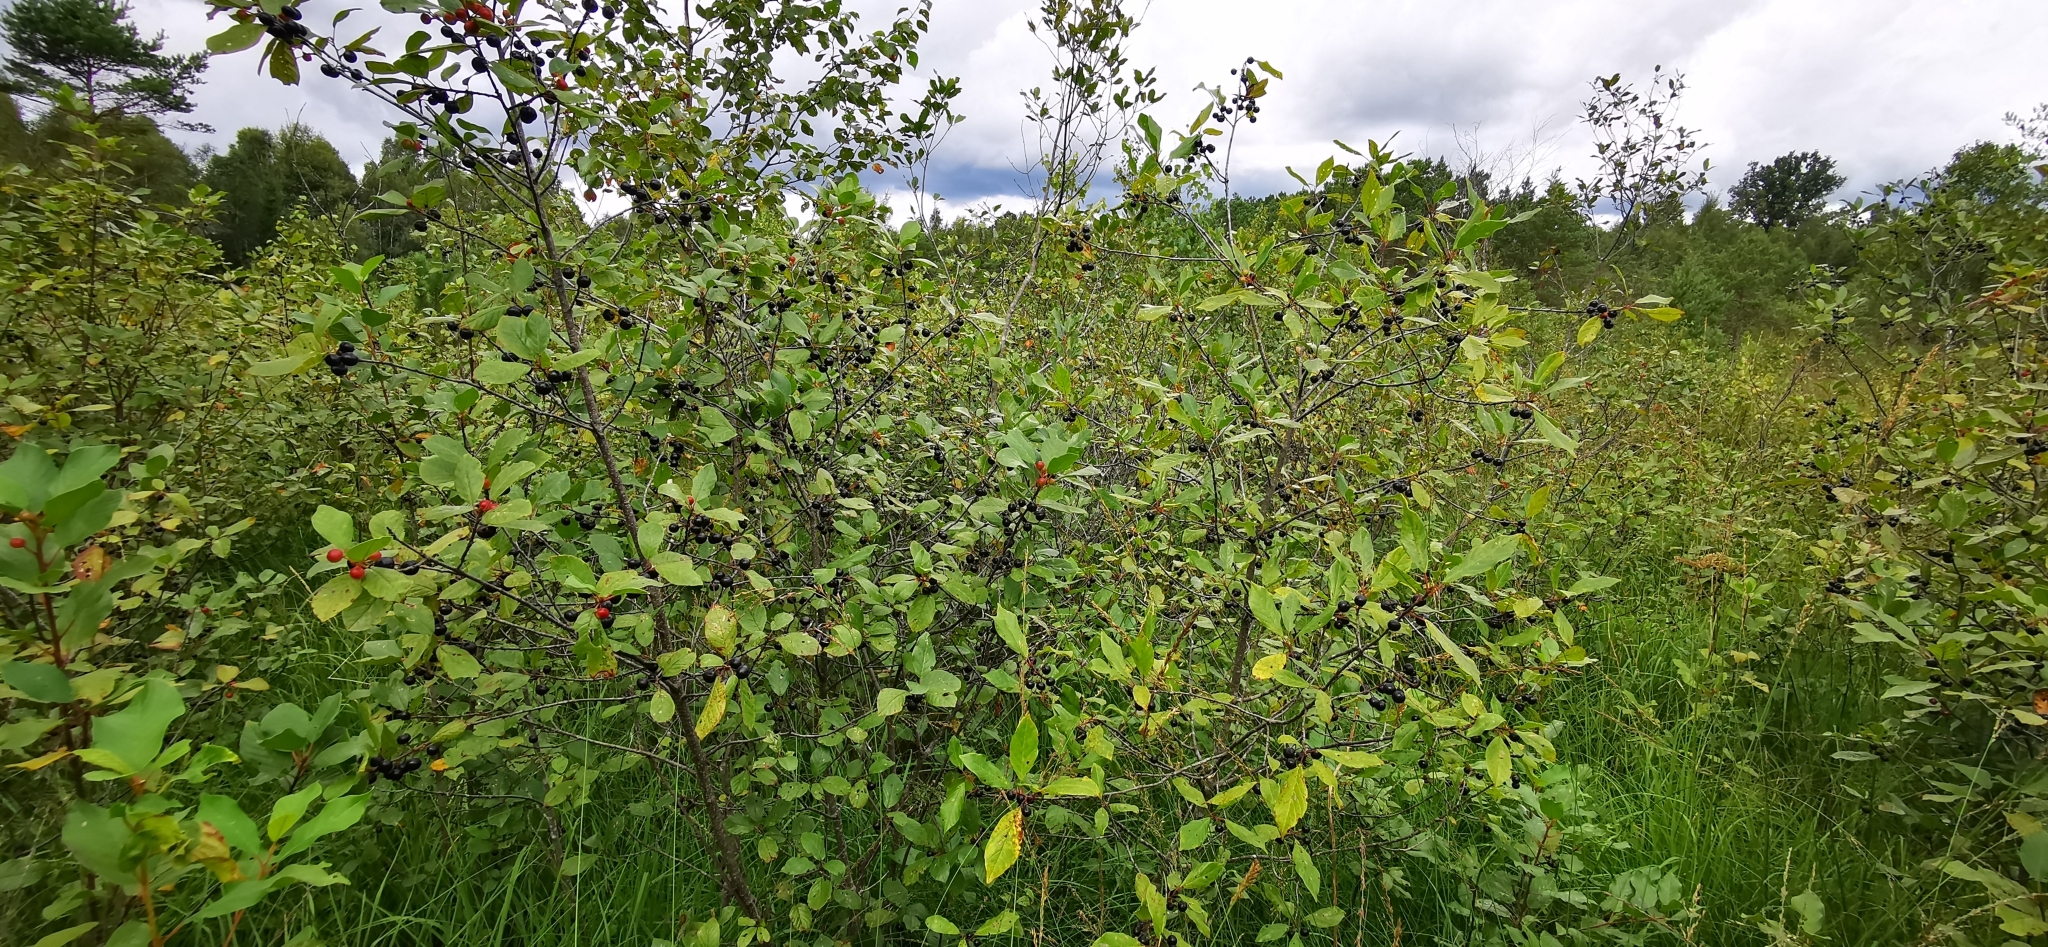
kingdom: Plantae
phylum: Tracheophyta
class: Magnoliopsida
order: Rosales
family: Rhamnaceae
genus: Frangula
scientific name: Frangula alnus
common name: Alder buckthorn
